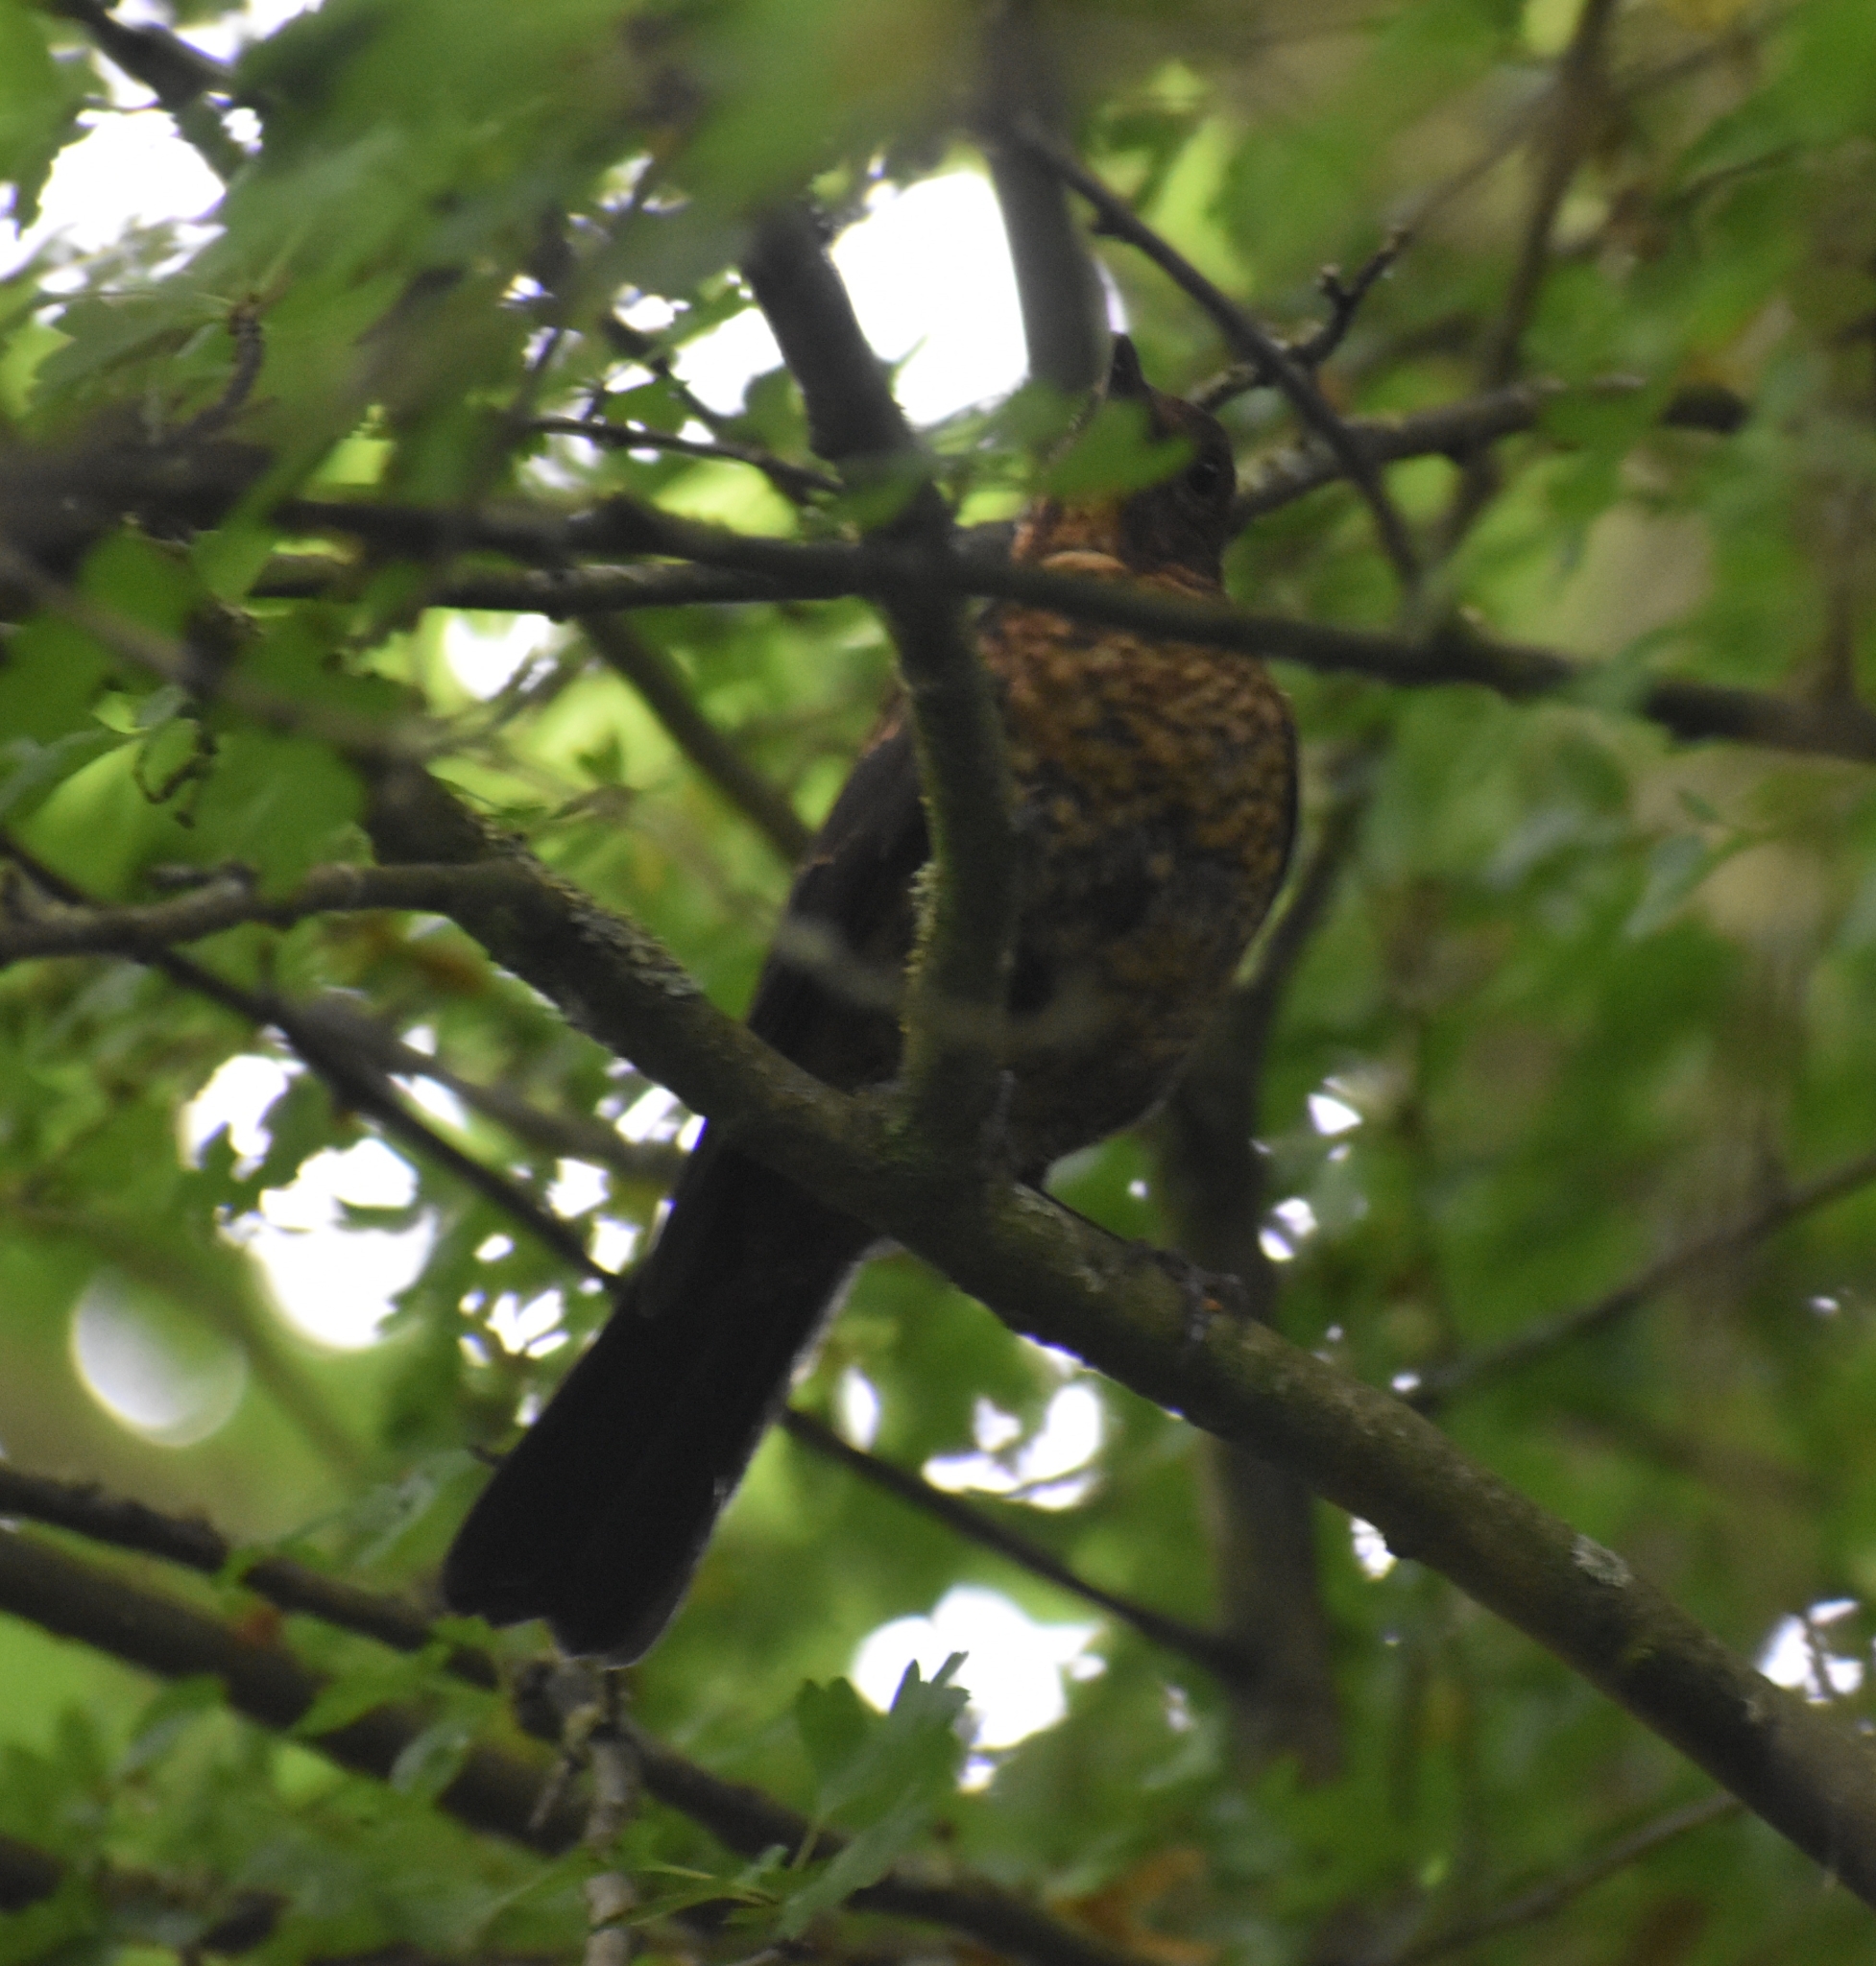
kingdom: Animalia
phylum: Chordata
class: Aves
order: Passeriformes
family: Turdidae
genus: Turdus
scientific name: Turdus merula
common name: Common blackbird
